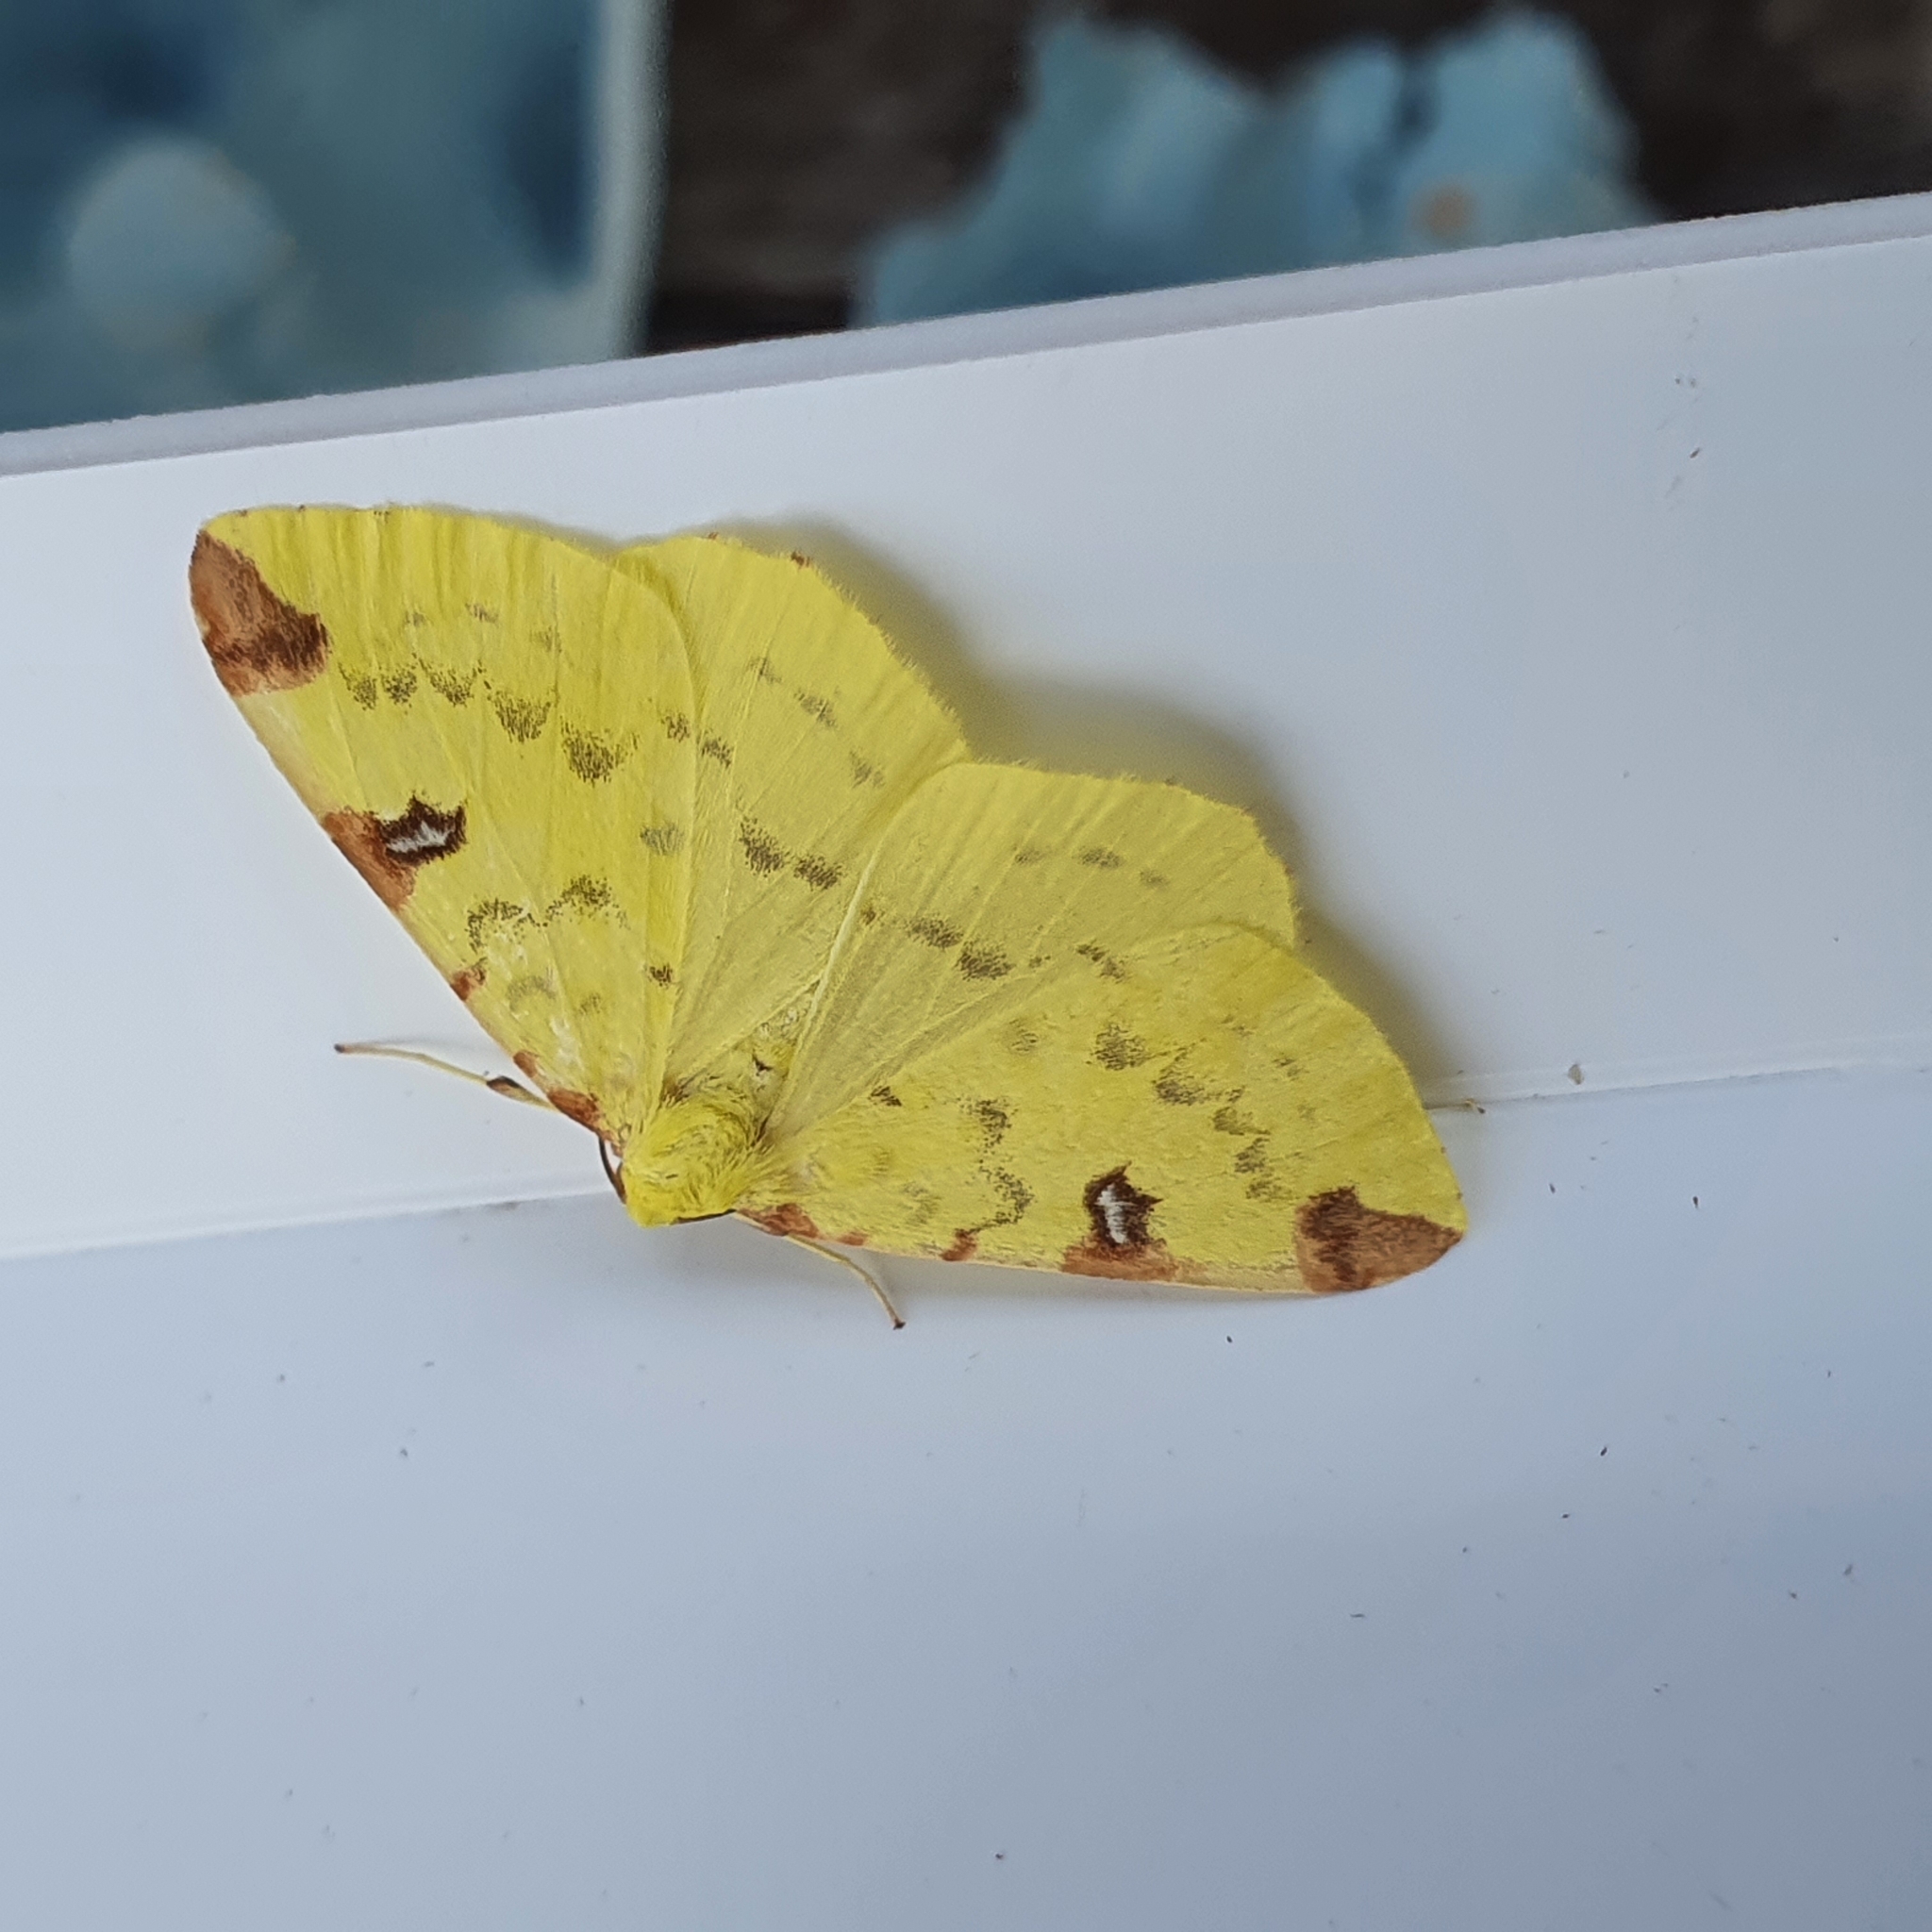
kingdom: Animalia
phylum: Arthropoda
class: Insecta
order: Lepidoptera
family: Geometridae
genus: Opisthograptis
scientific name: Opisthograptis luteolata
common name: Brimstone moth
